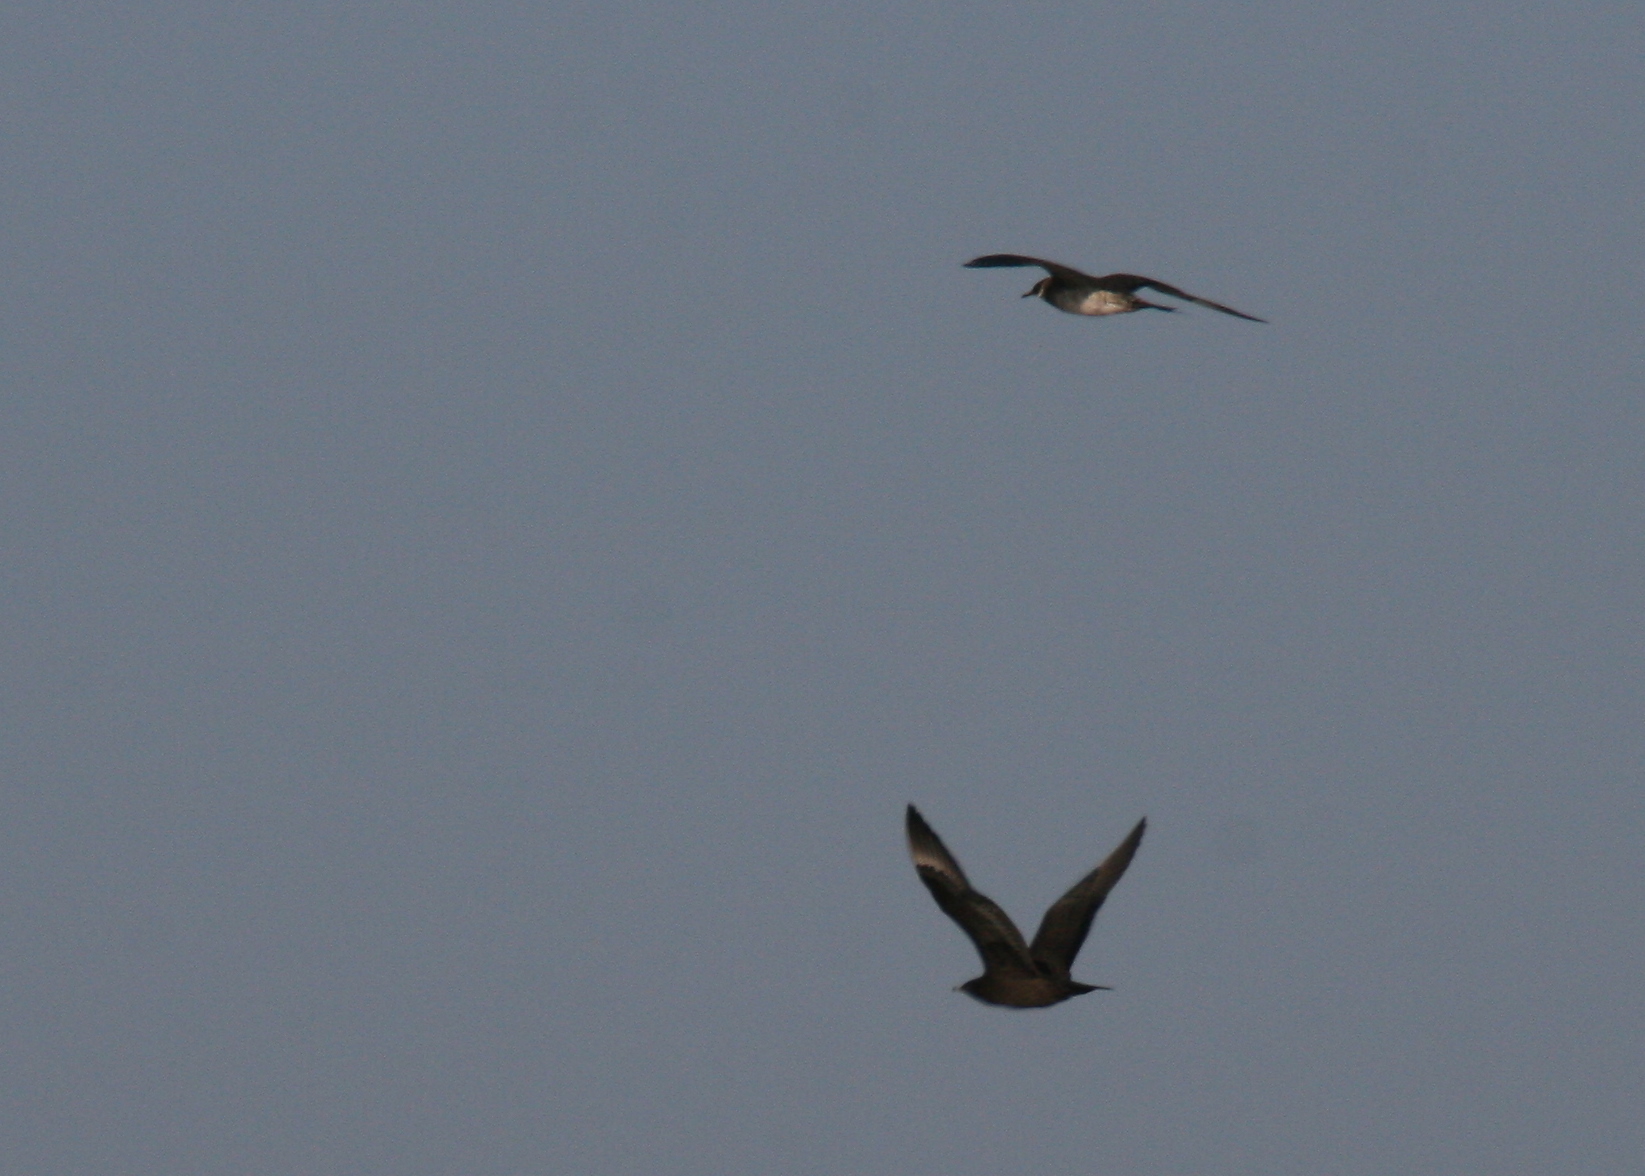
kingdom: Animalia
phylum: Chordata
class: Aves
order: Charadriiformes
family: Stercorariidae
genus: Stercorarius
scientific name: Stercorarius parasiticus
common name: Parasitic jaeger
